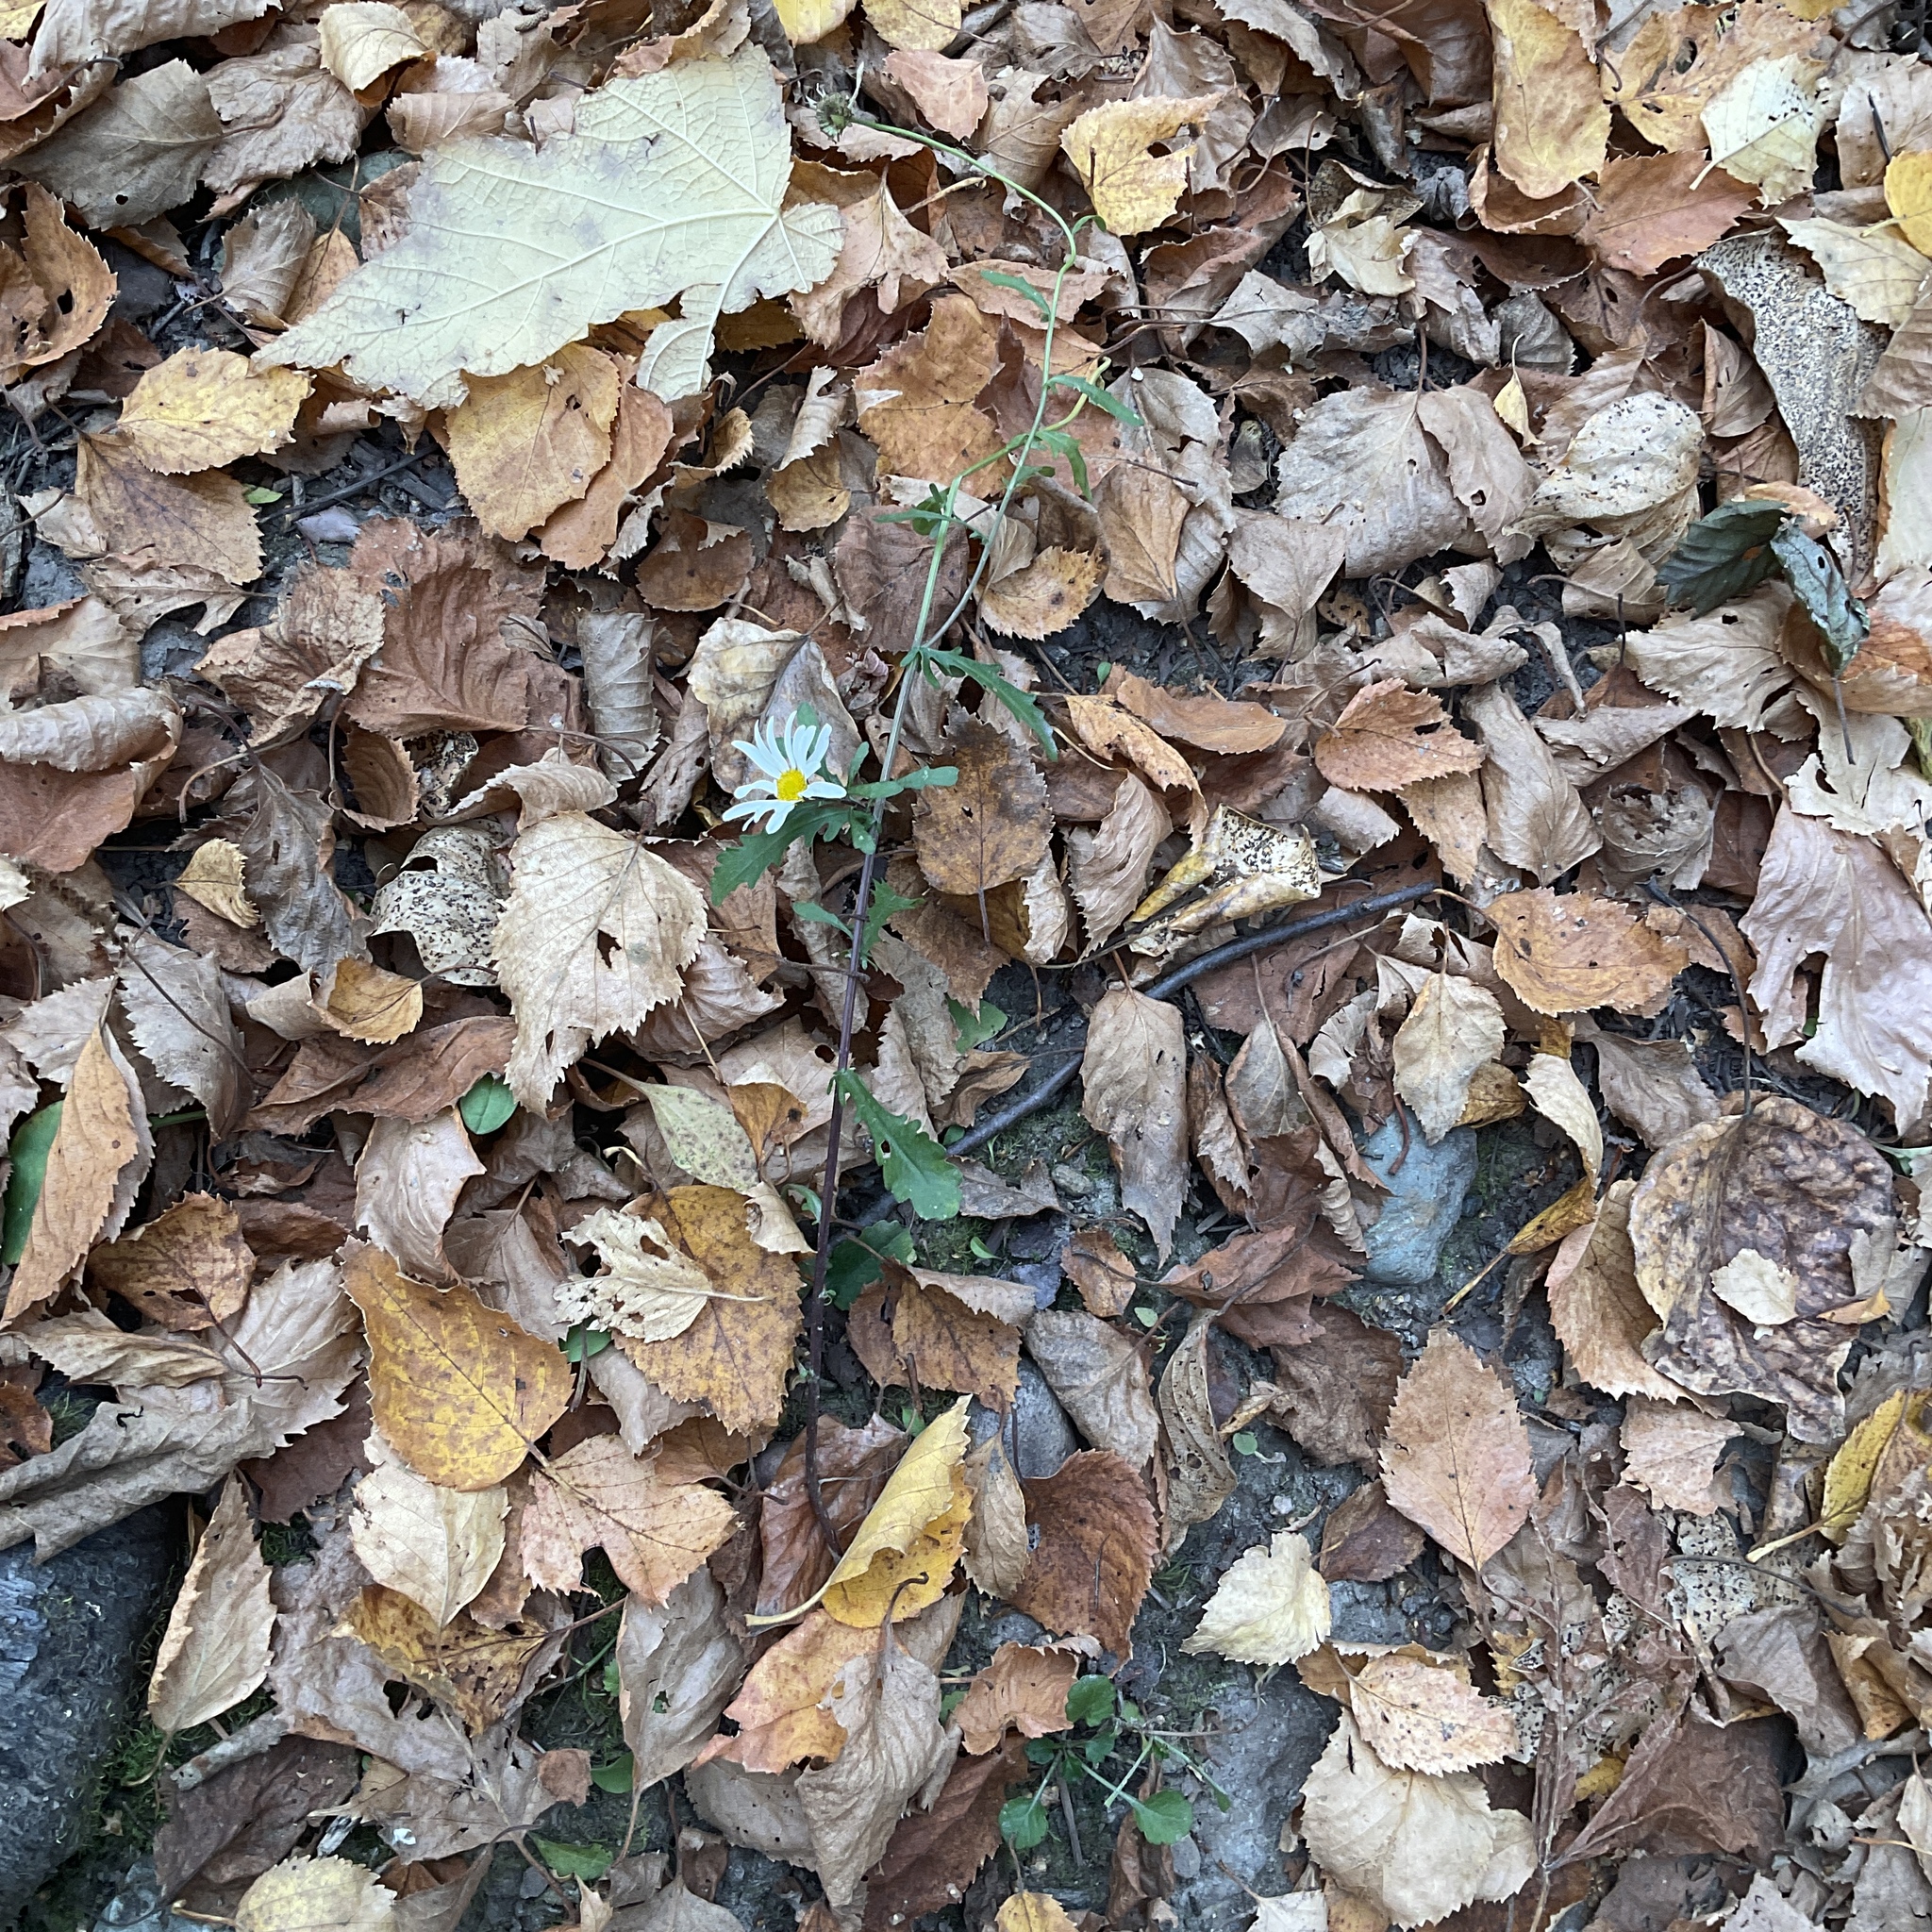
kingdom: Plantae
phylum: Tracheophyta
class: Magnoliopsida
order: Asterales
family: Asteraceae
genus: Leucanthemum
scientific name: Leucanthemum vulgare
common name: Oxeye daisy
